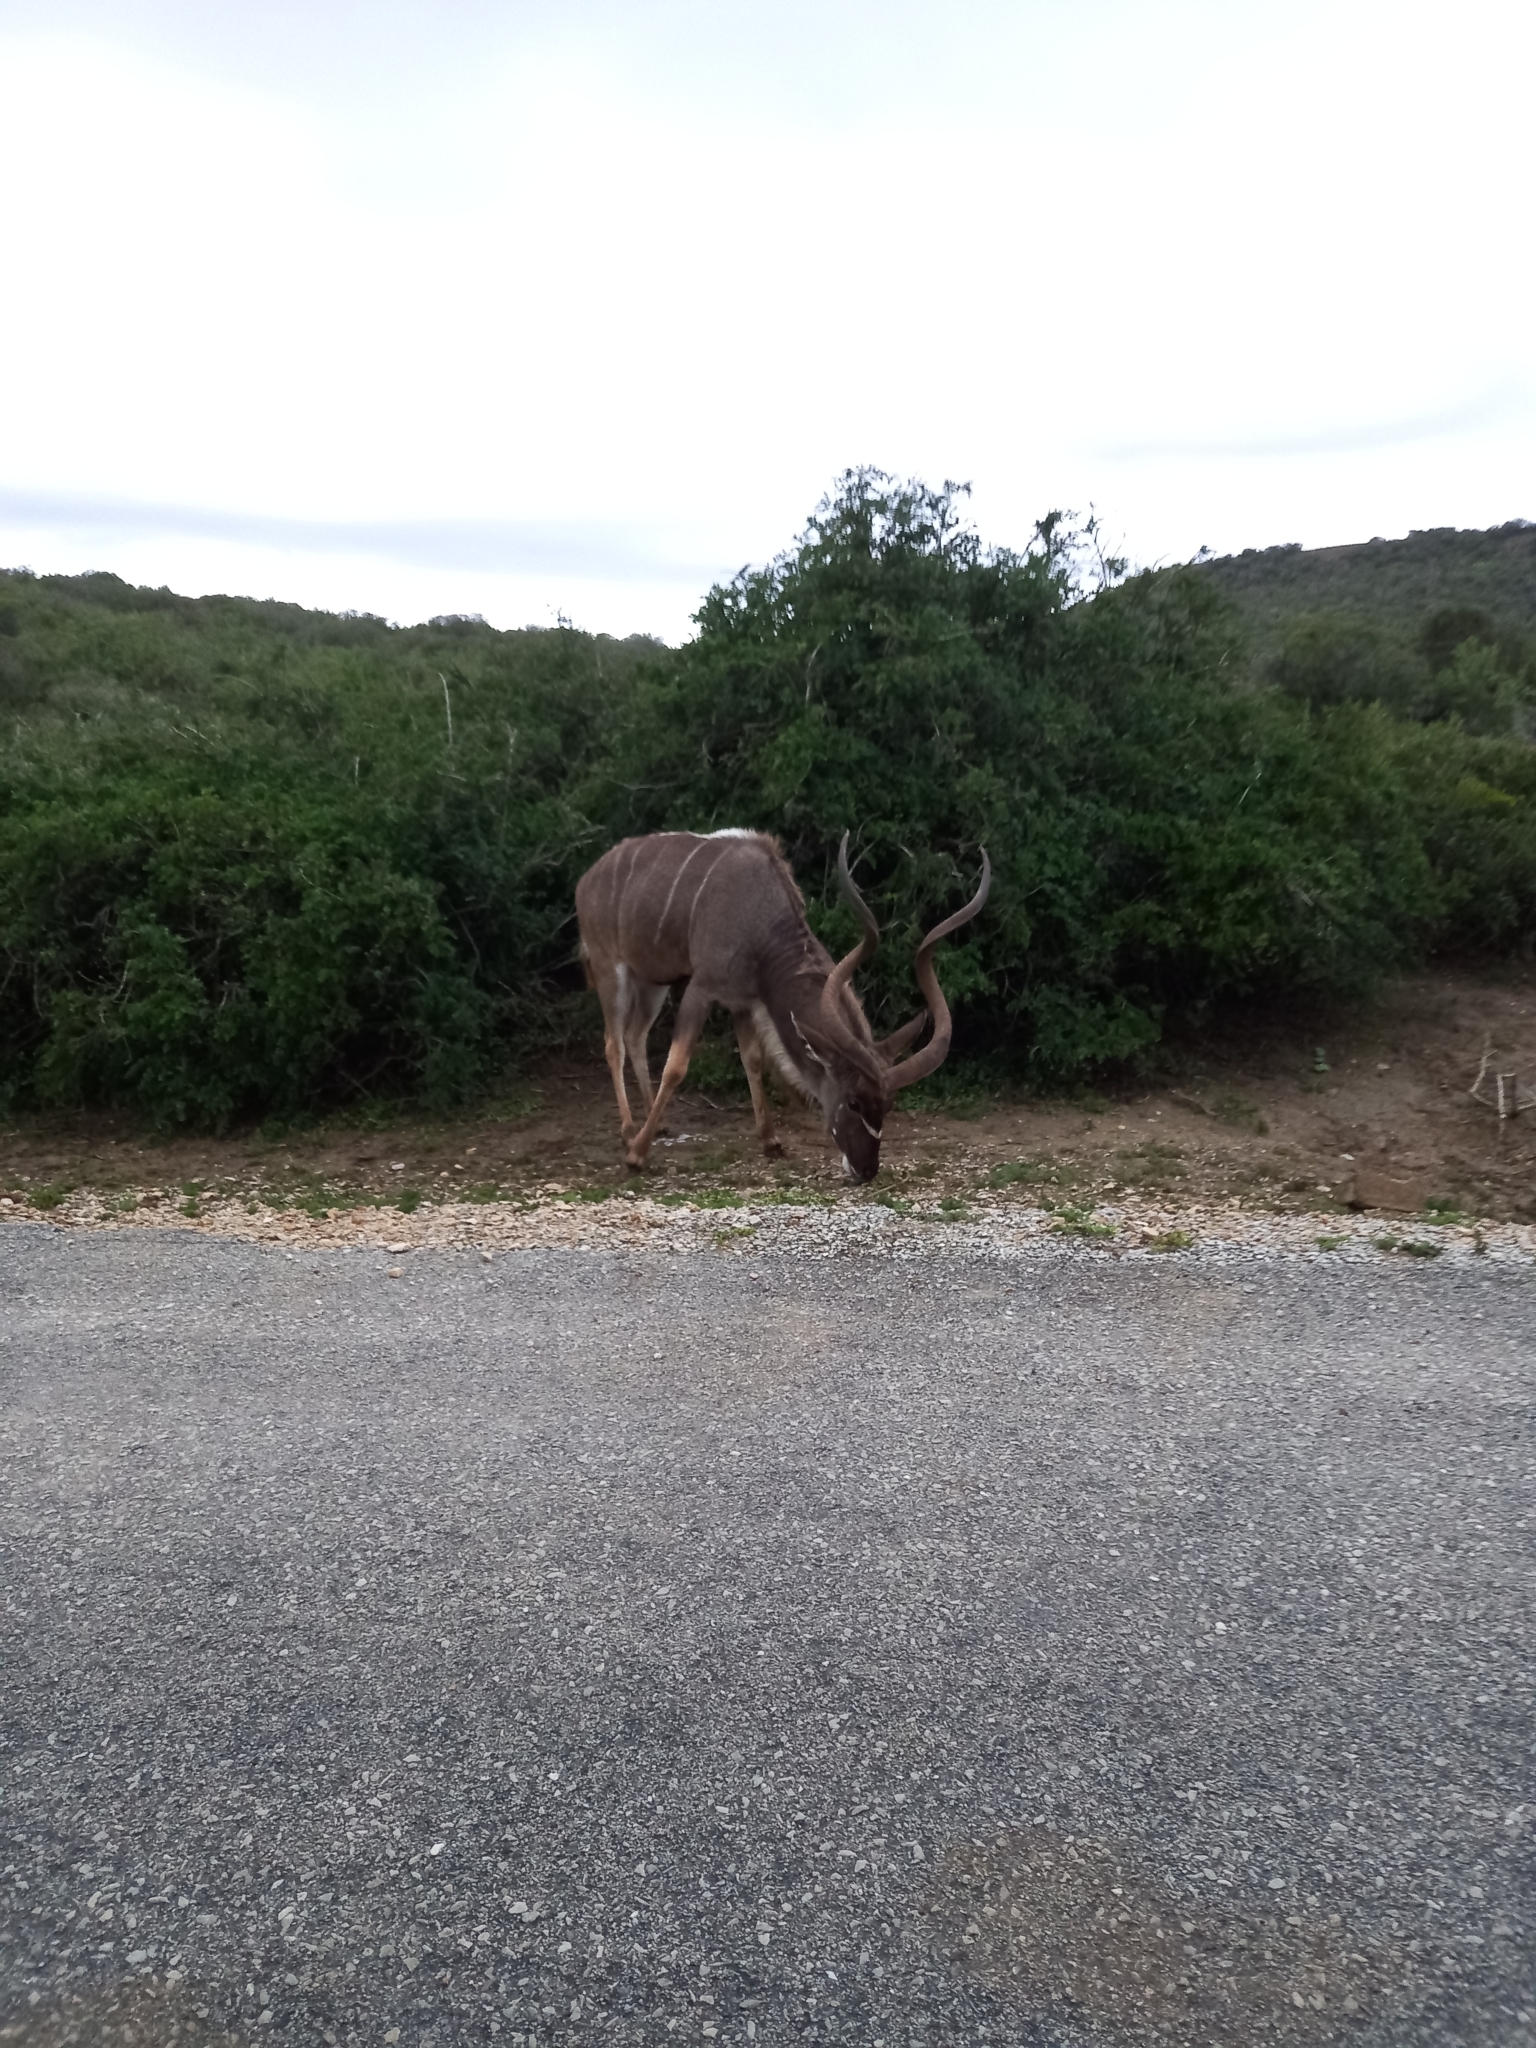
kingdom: Animalia
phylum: Chordata
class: Mammalia
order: Artiodactyla
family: Bovidae
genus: Tragelaphus
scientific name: Tragelaphus strepsiceros
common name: Greater kudu
